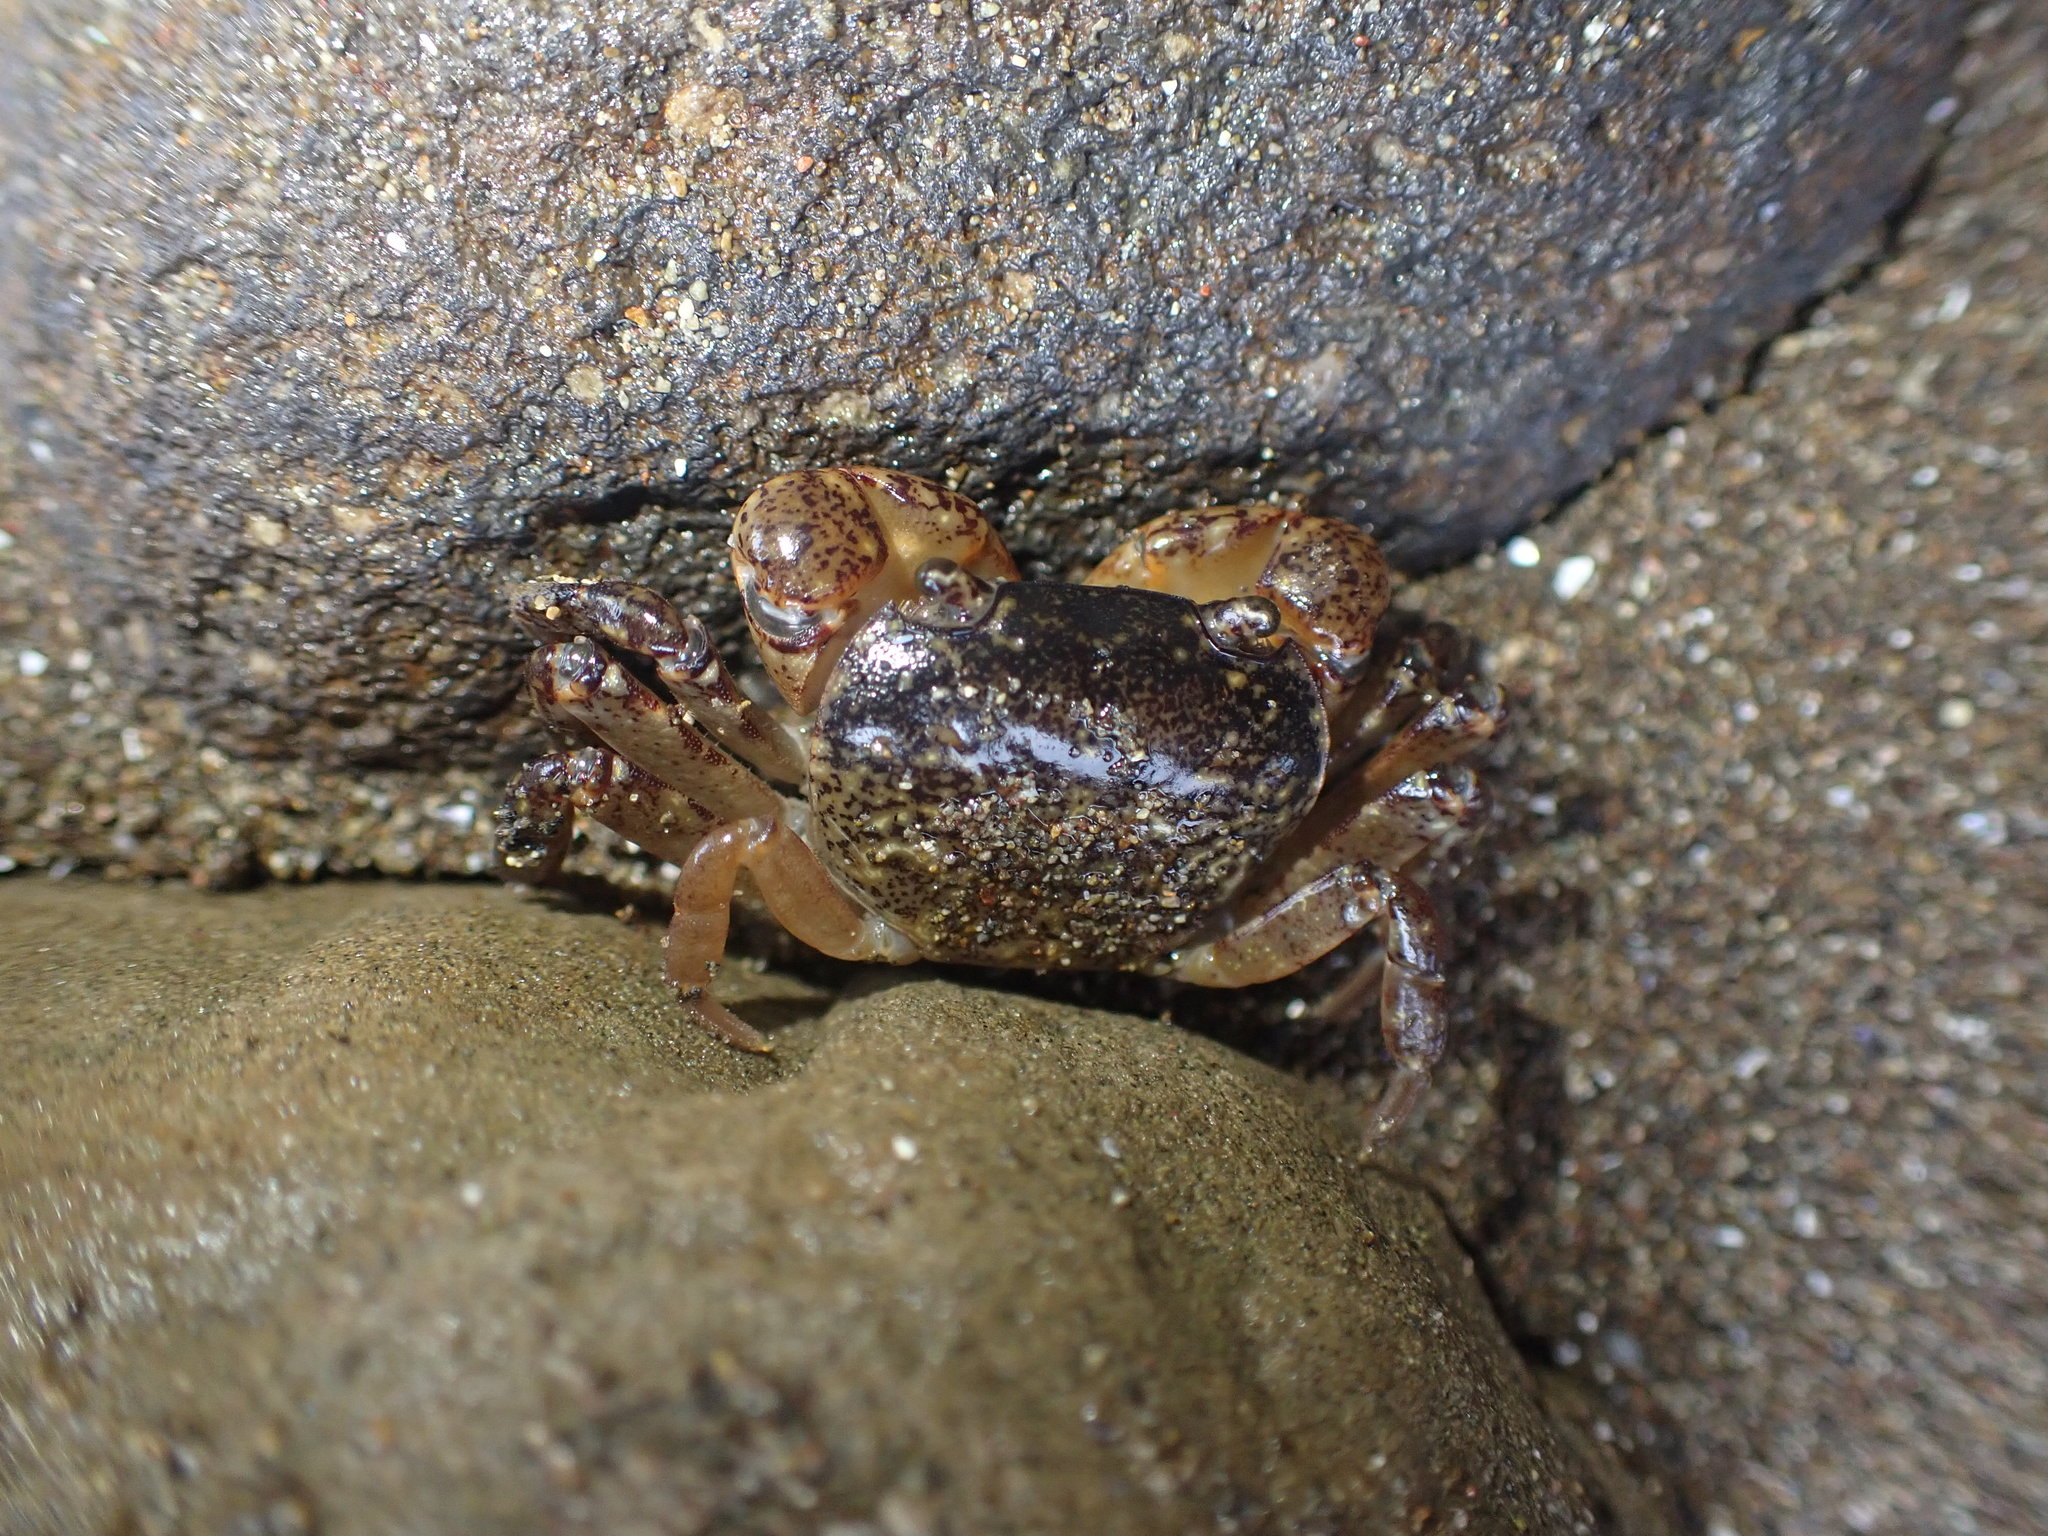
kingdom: Animalia
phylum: Arthropoda
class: Malacostraca
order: Decapoda
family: Varunidae
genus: Cyclograpsus
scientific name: Cyclograpsus lavauxi
